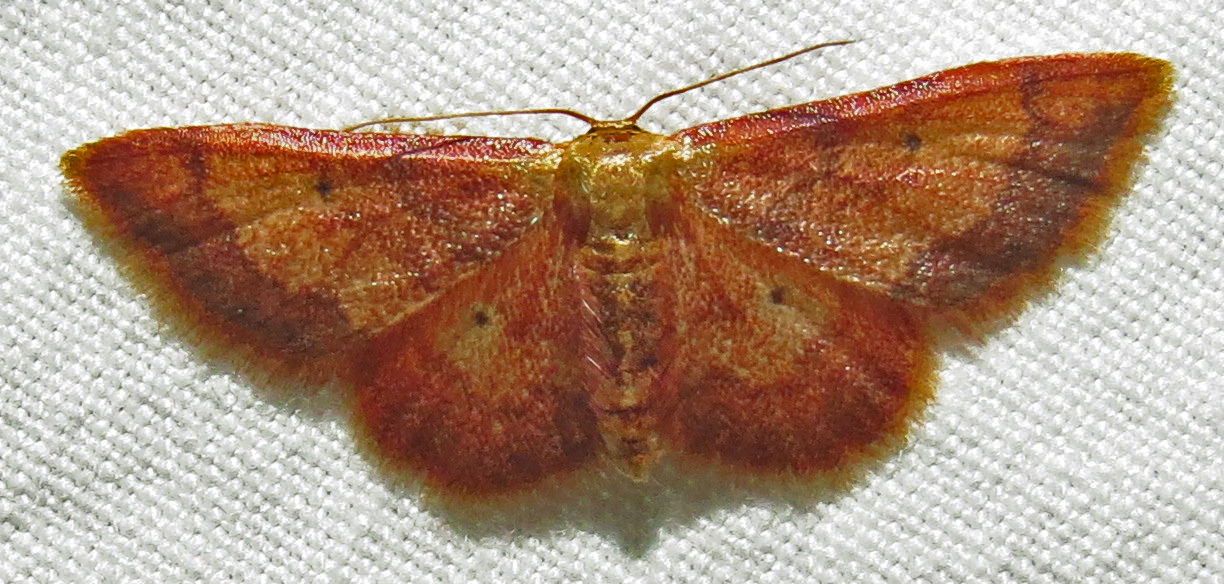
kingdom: Animalia
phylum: Arthropoda
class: Insecta
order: Lepidoptera
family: Geometridae
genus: Idaea
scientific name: Idaea demissaria
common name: Red-bordered wave
